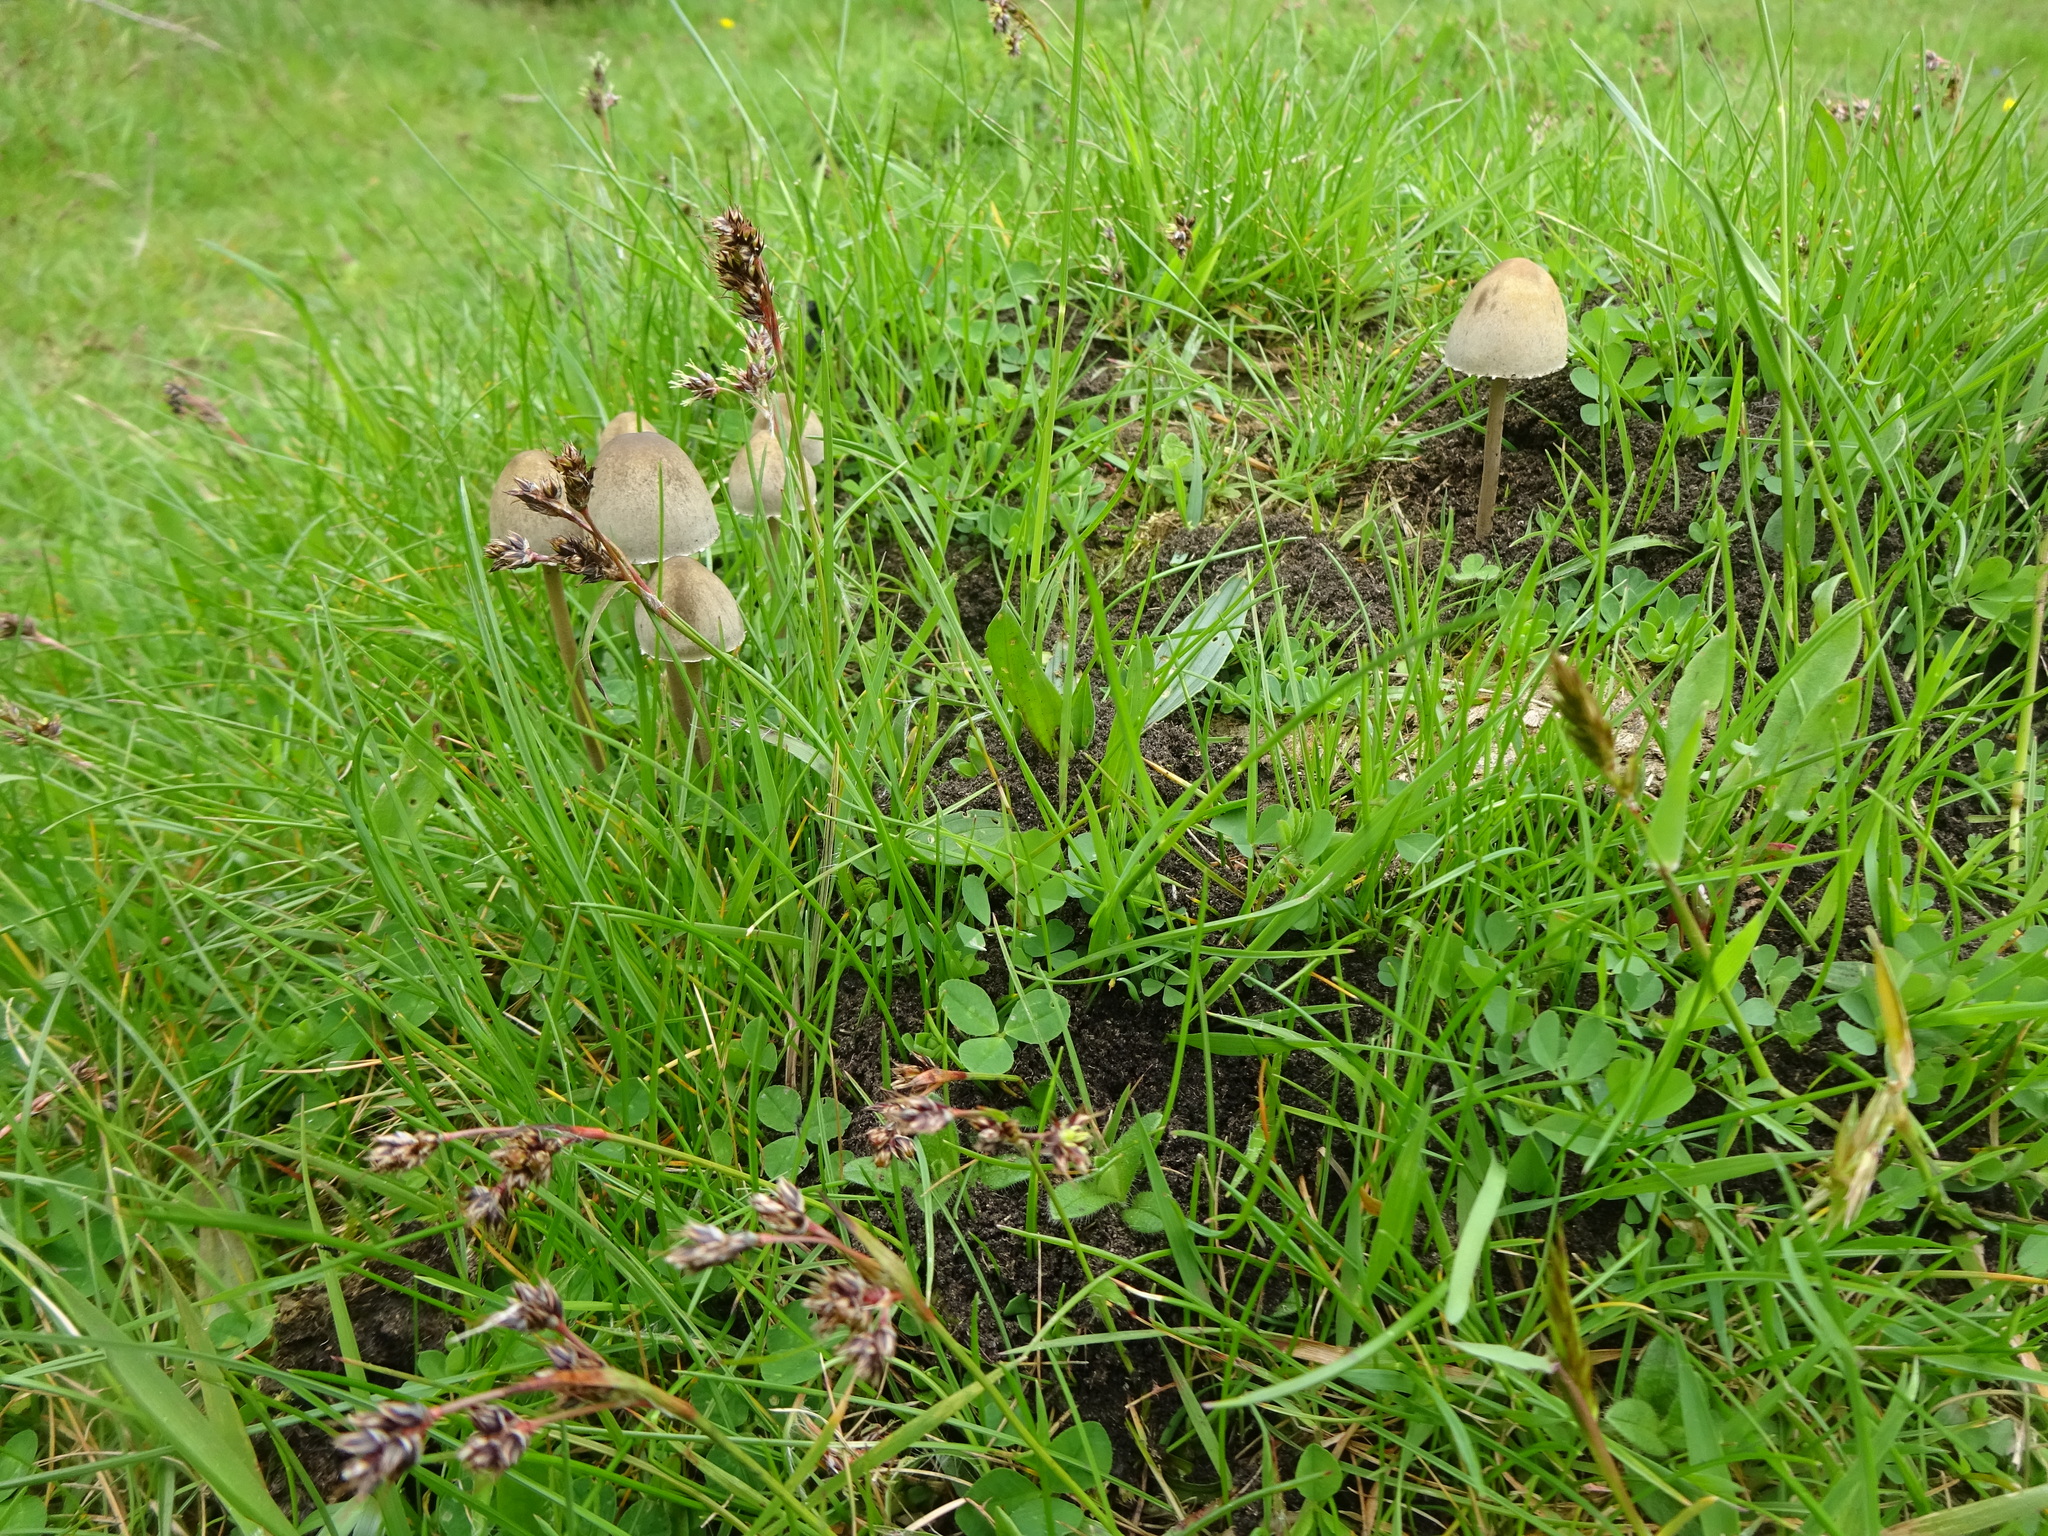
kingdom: Fungi
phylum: Basidiomycota
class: Agaricomycetes
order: Agaricales
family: Bolbitiaceae
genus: Panaeolus
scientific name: Panaeolus papilionaceus
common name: Petticoat mottlegill
